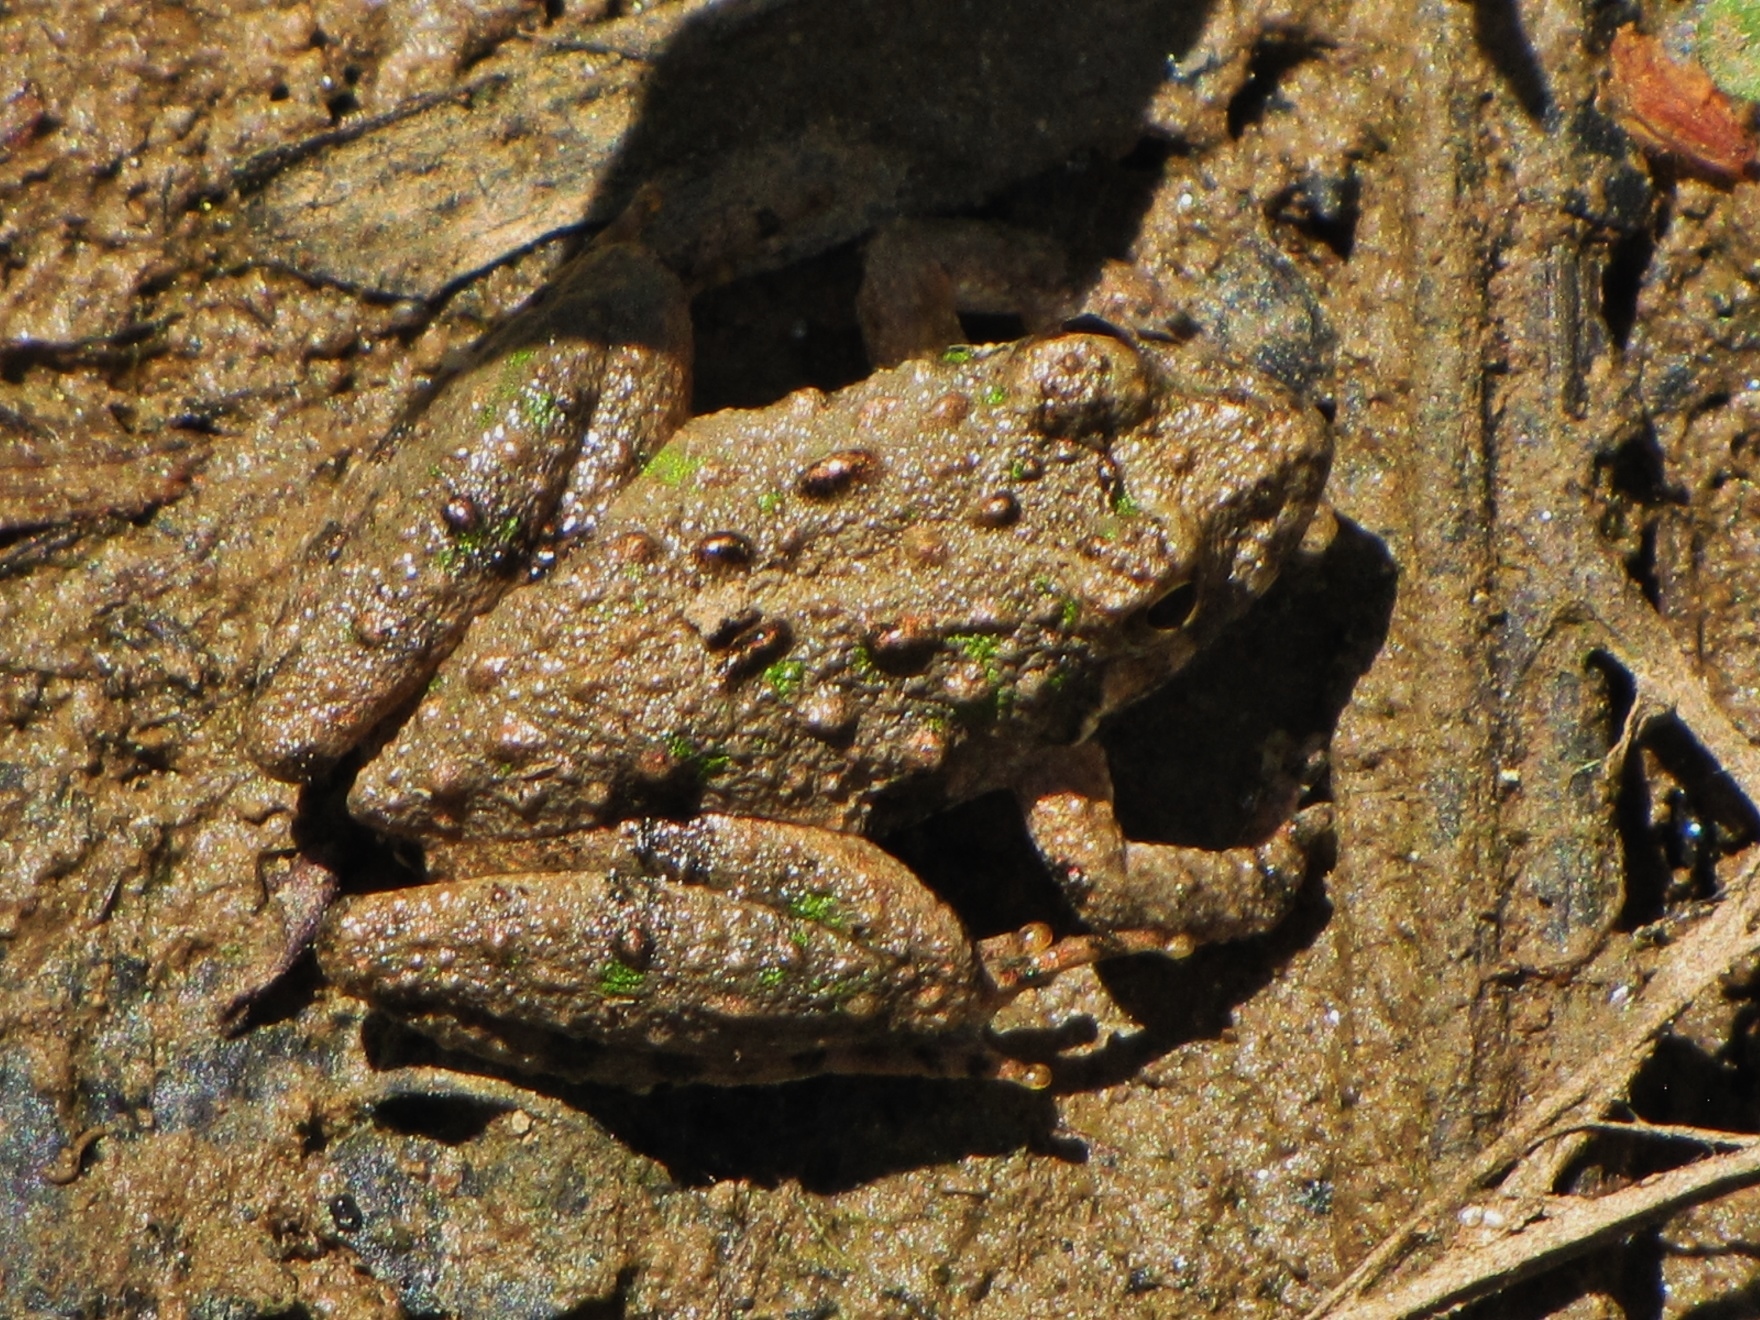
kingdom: Animalia
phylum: Chordata
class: Amphibia
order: Anura
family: Hylidae
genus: Acris
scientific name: Acris crepitans
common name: Northern cricket frog
